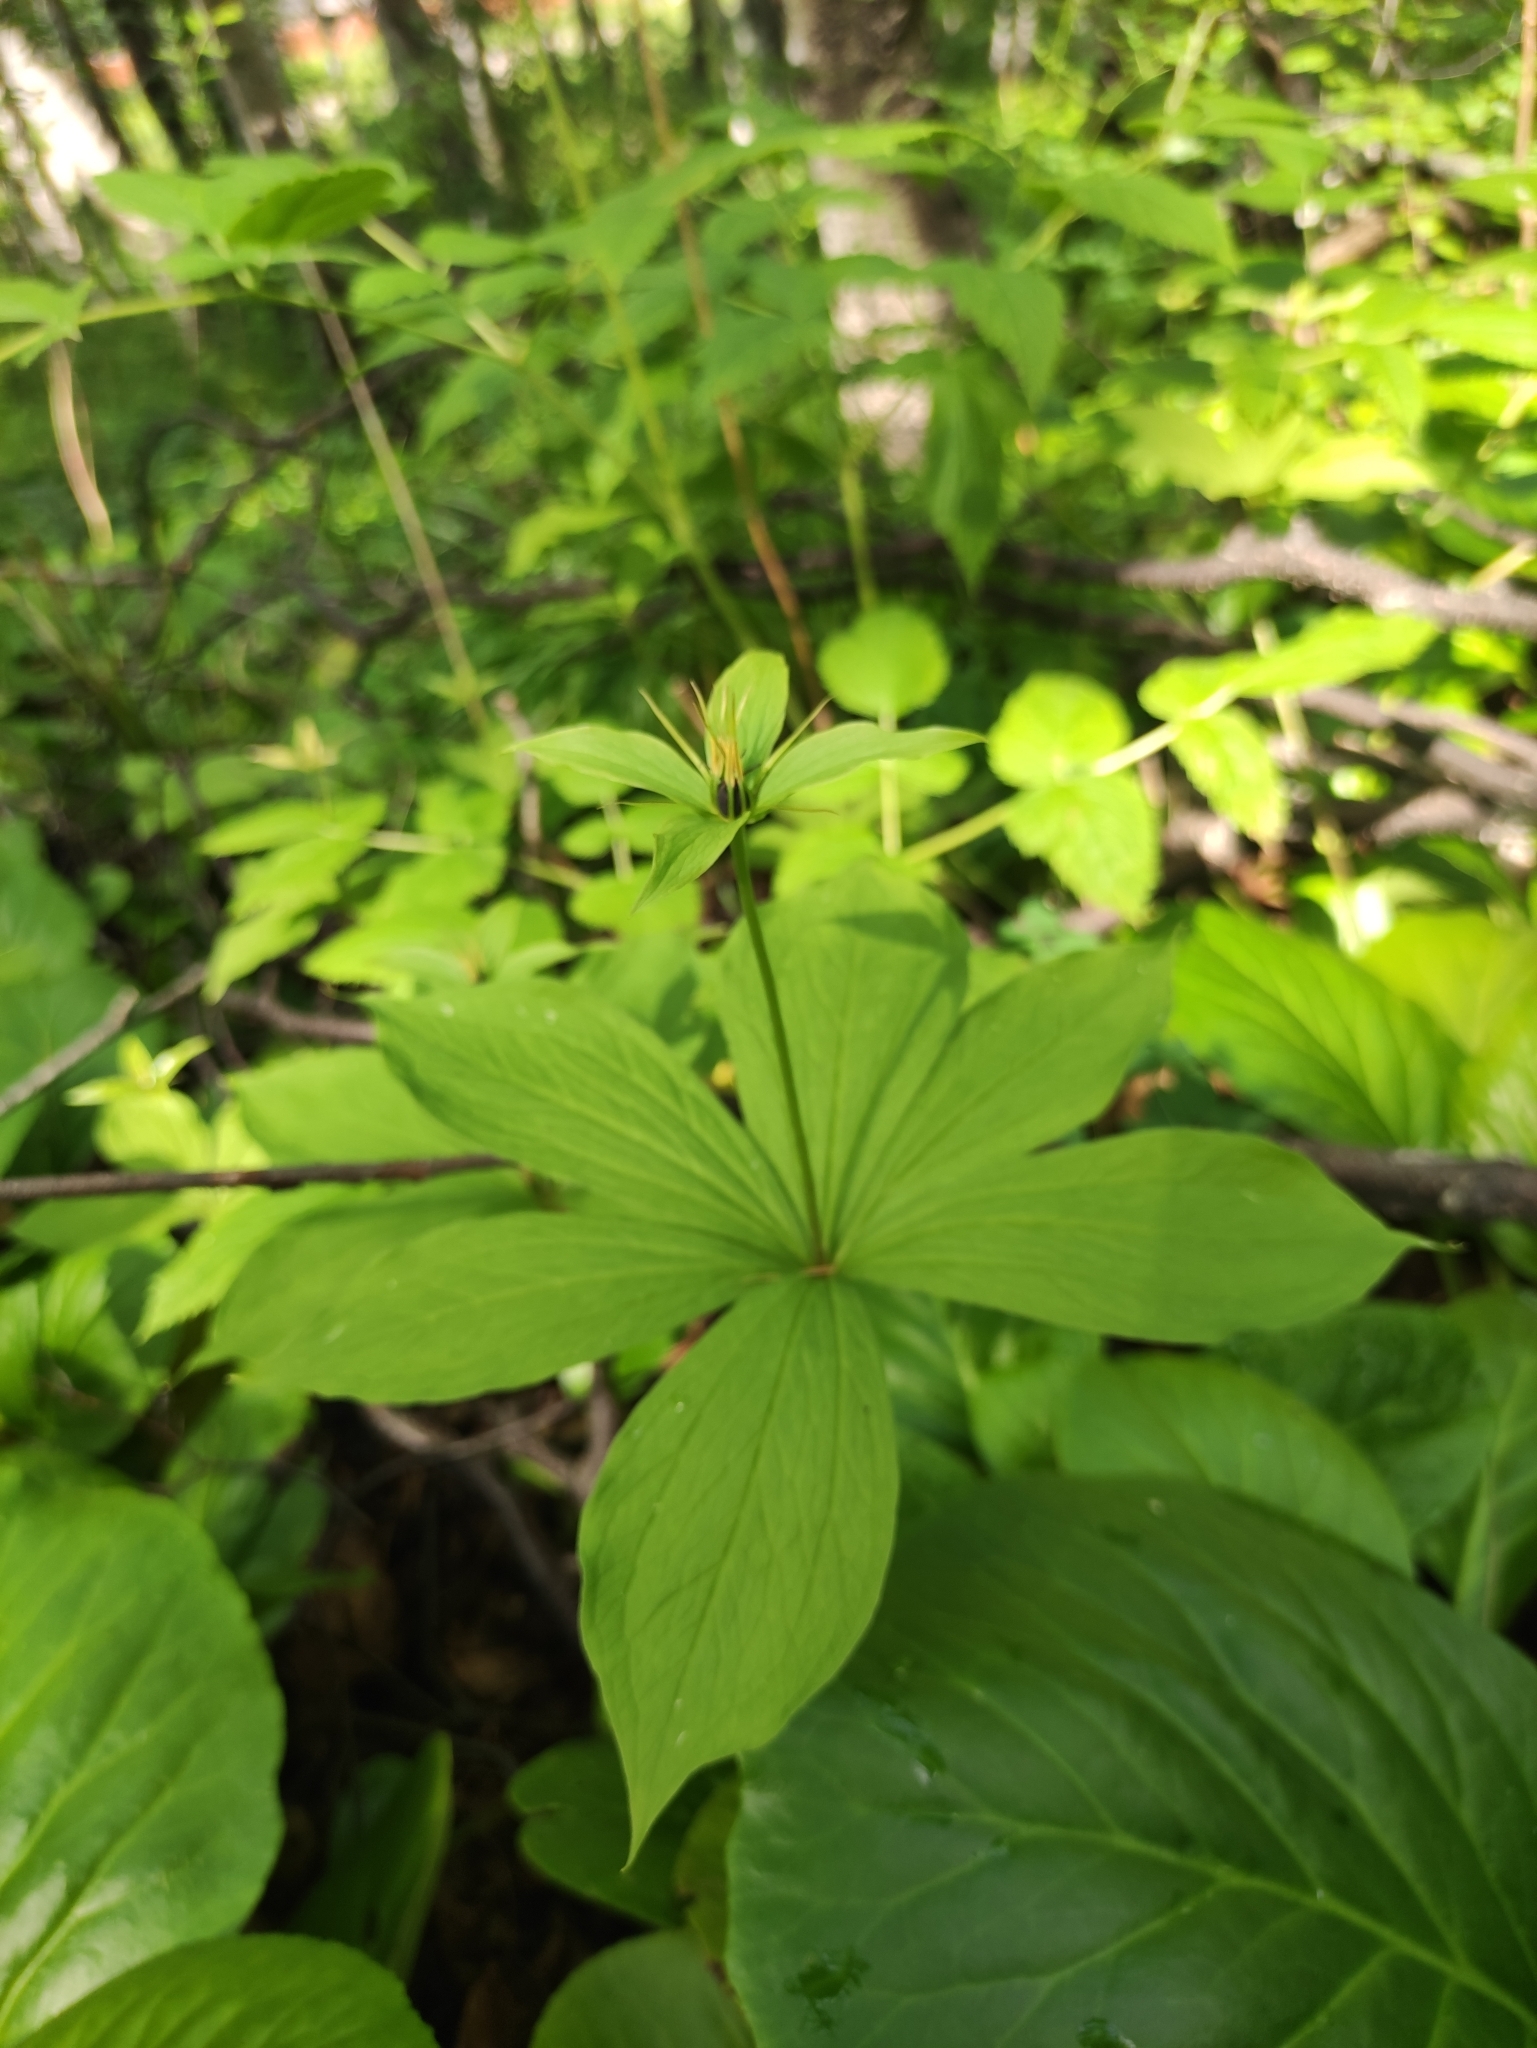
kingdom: Plantae
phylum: Tracheophyta
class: Liliopsida
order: Liliales
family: Melanthiaceae
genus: Paris
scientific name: Paris verticillata
